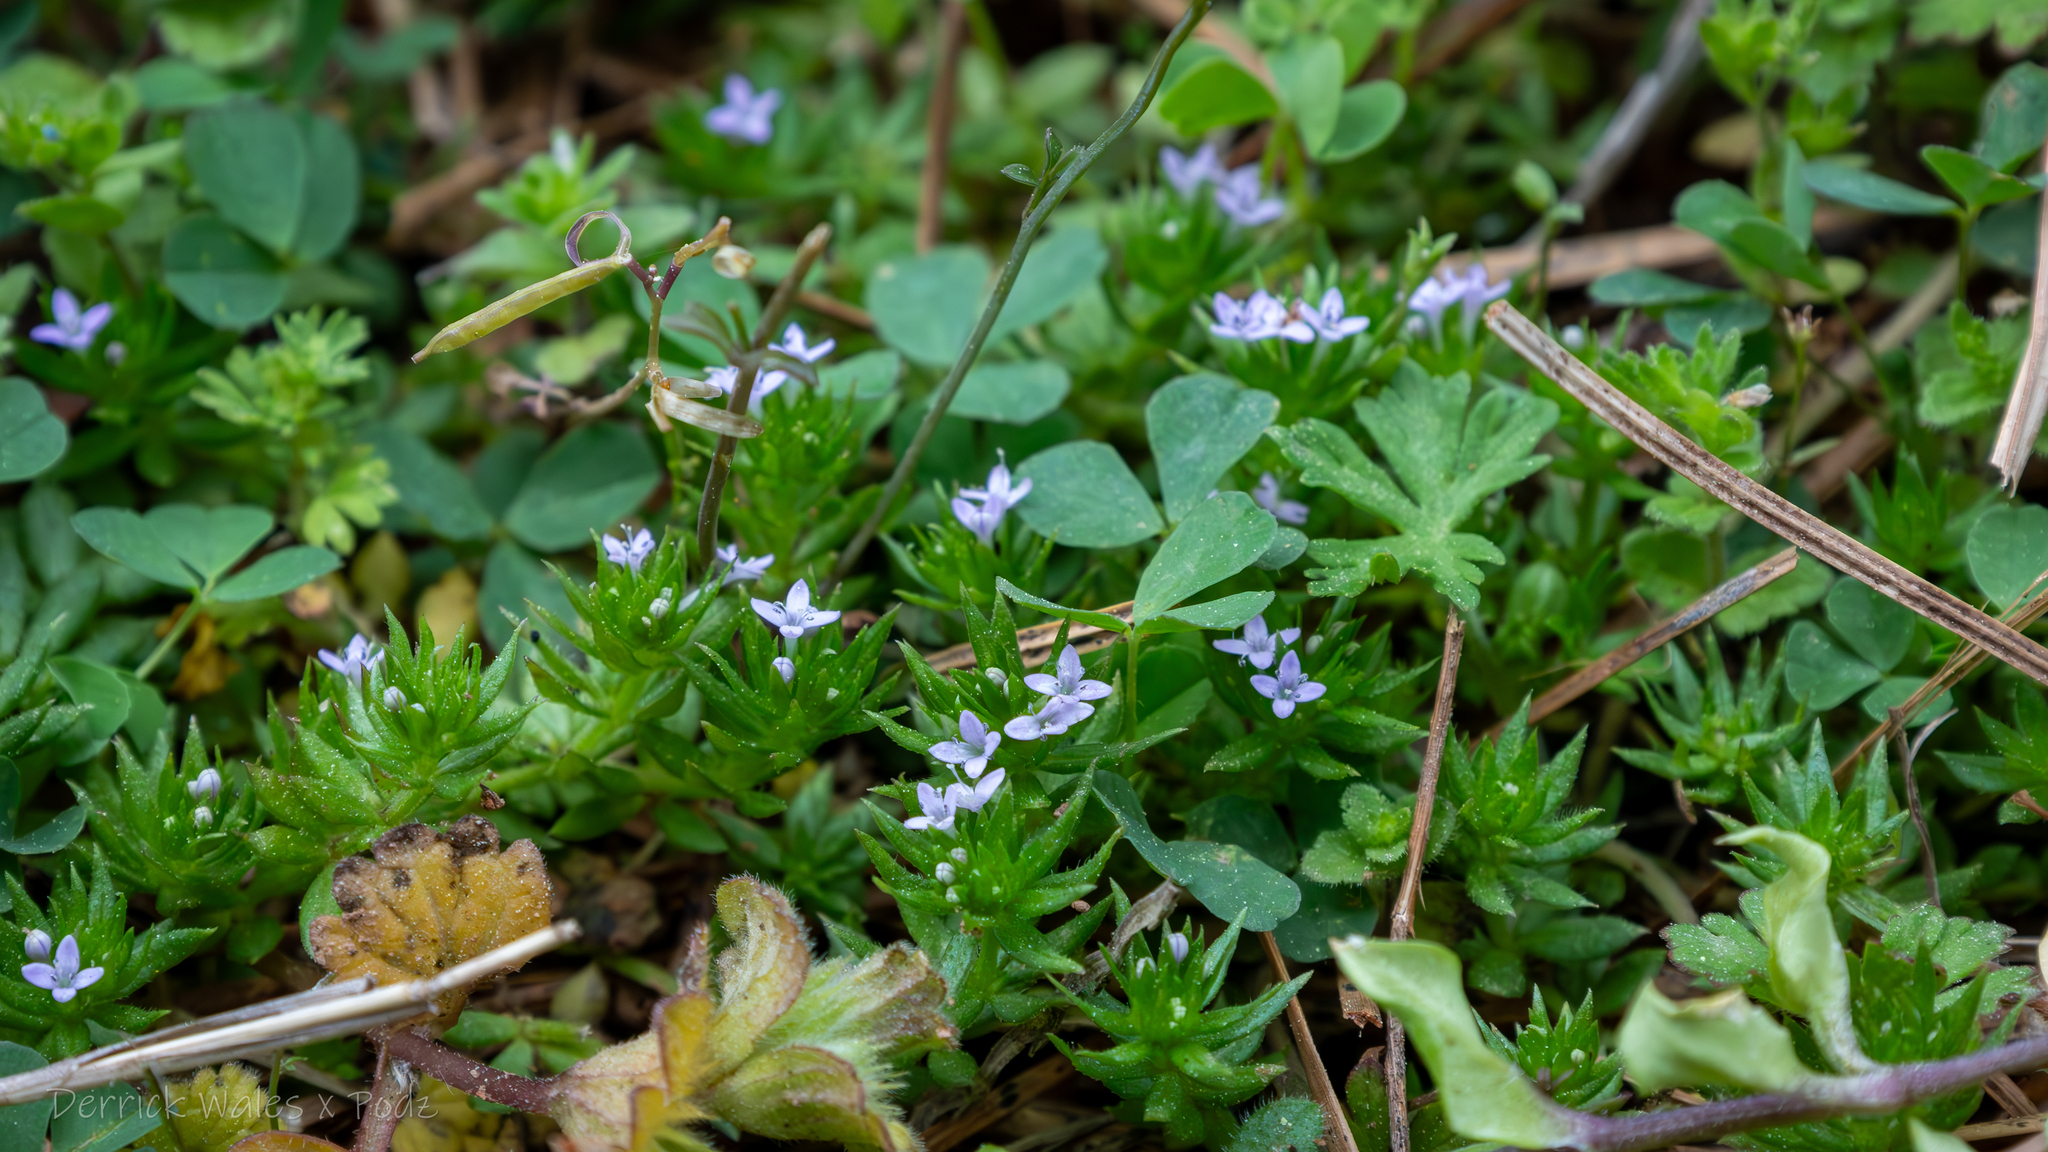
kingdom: Plantae
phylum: Tracheophyta
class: Magnoliopsida
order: Gentianales
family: Rubiaceae
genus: Sherardia
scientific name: Sherardia arvensis
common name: Field madder
